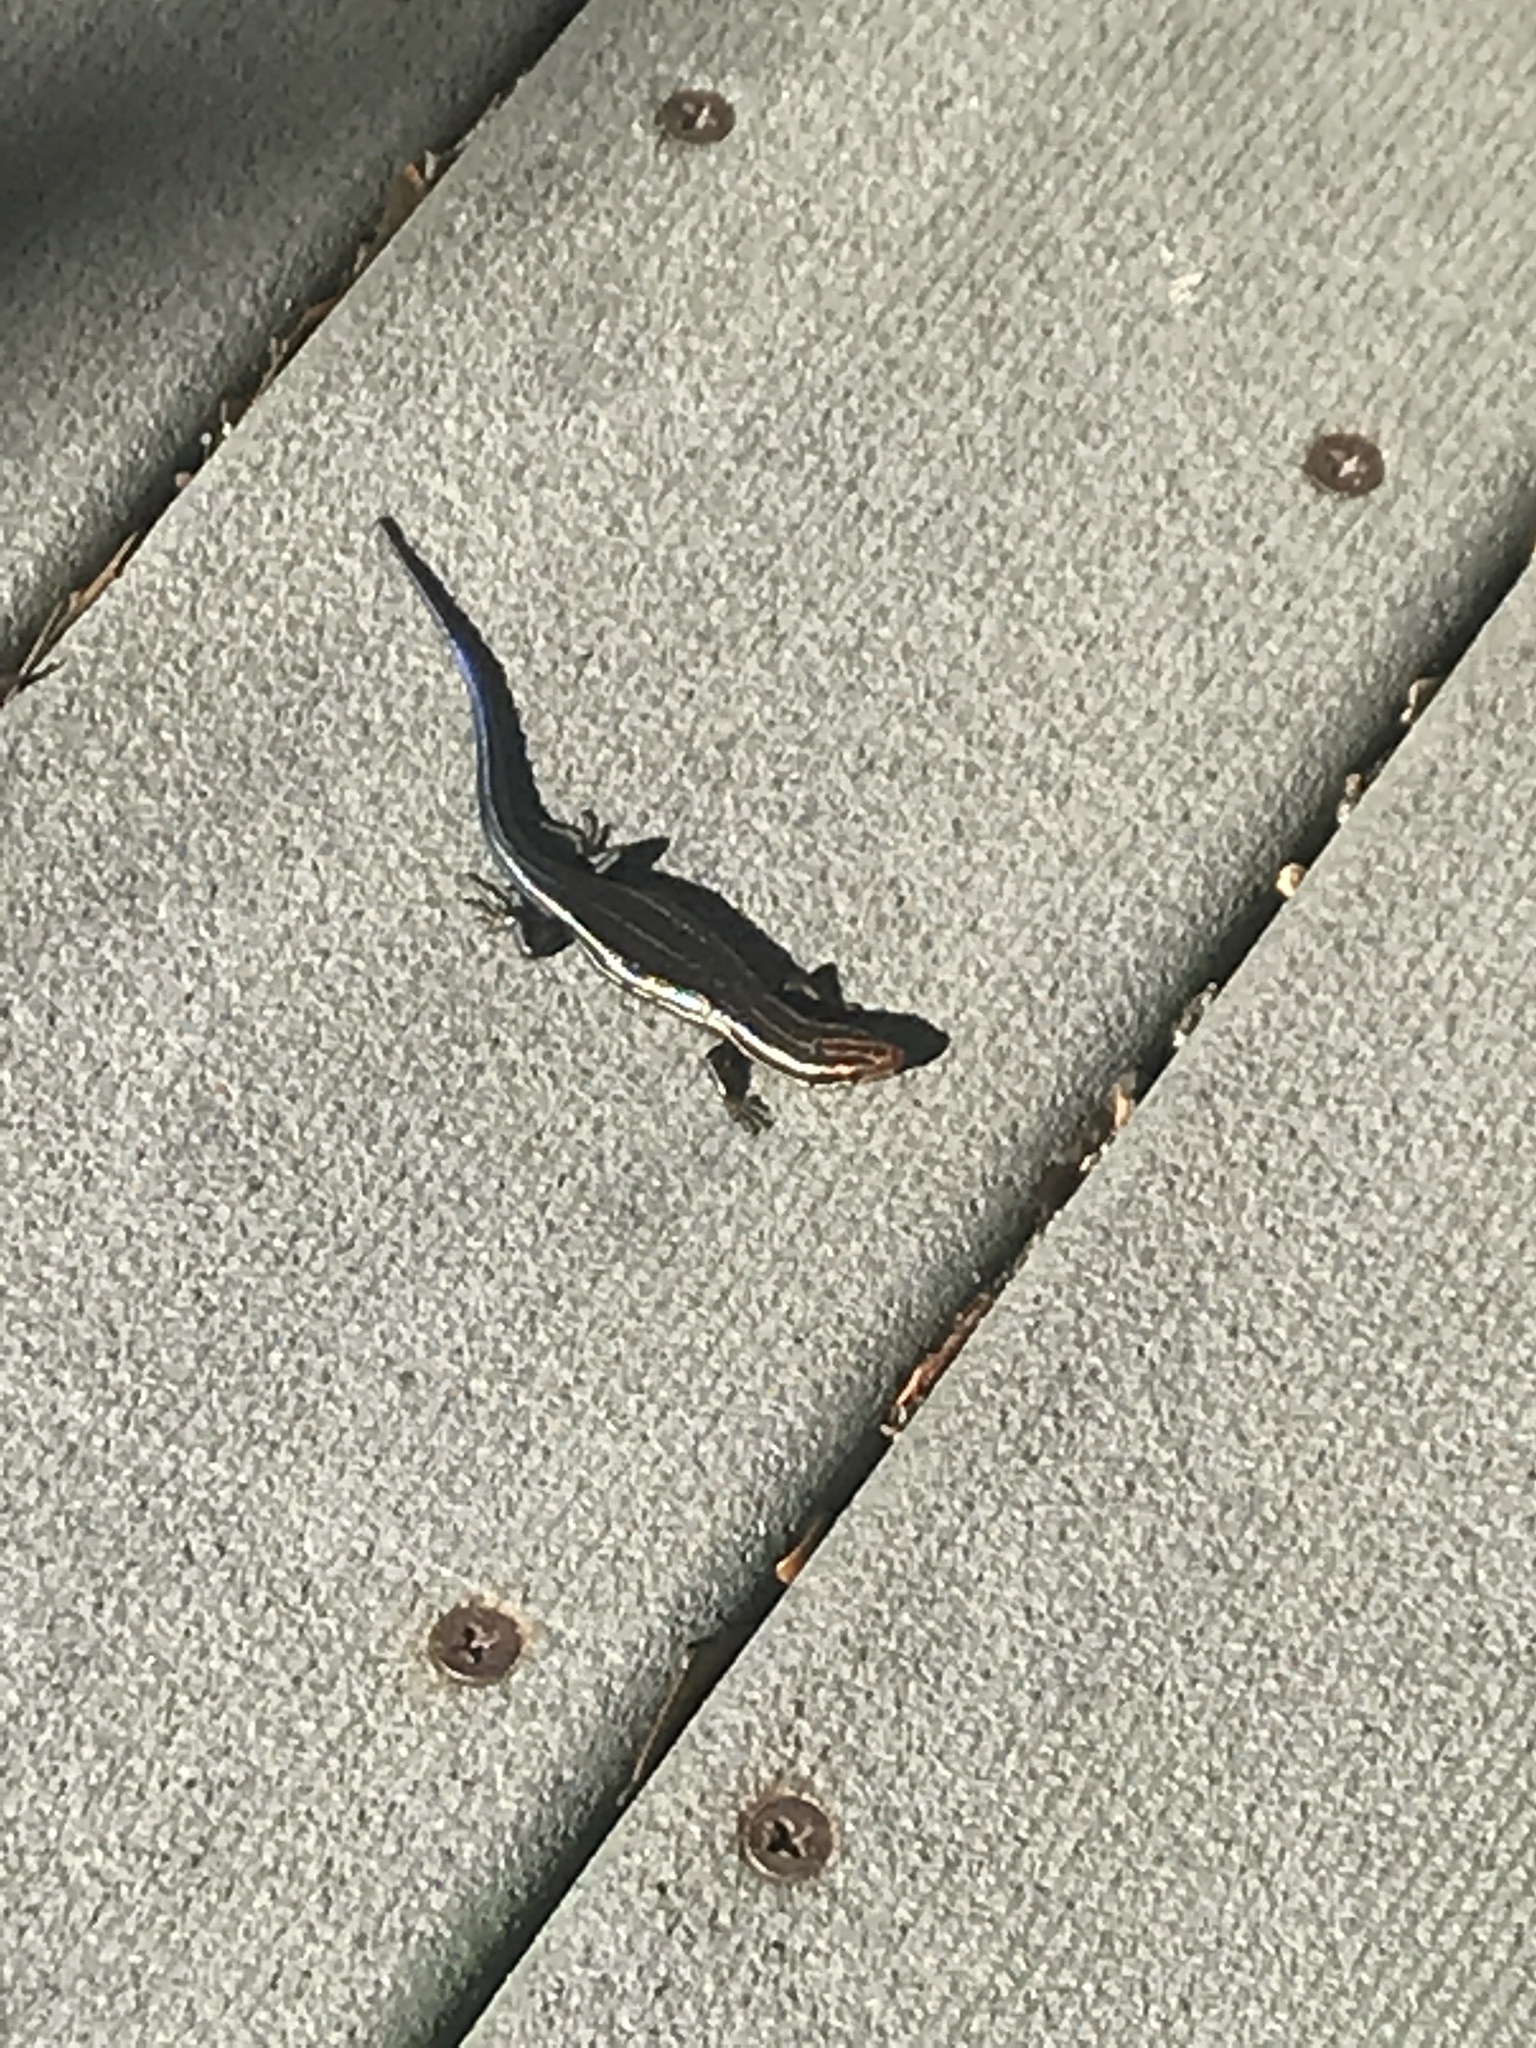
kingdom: Animalia
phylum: Chordata
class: Squamata
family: Scincidae
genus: Plestiodon
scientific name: Plestiodon inexpectatus
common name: Southeastern five-lined skink
